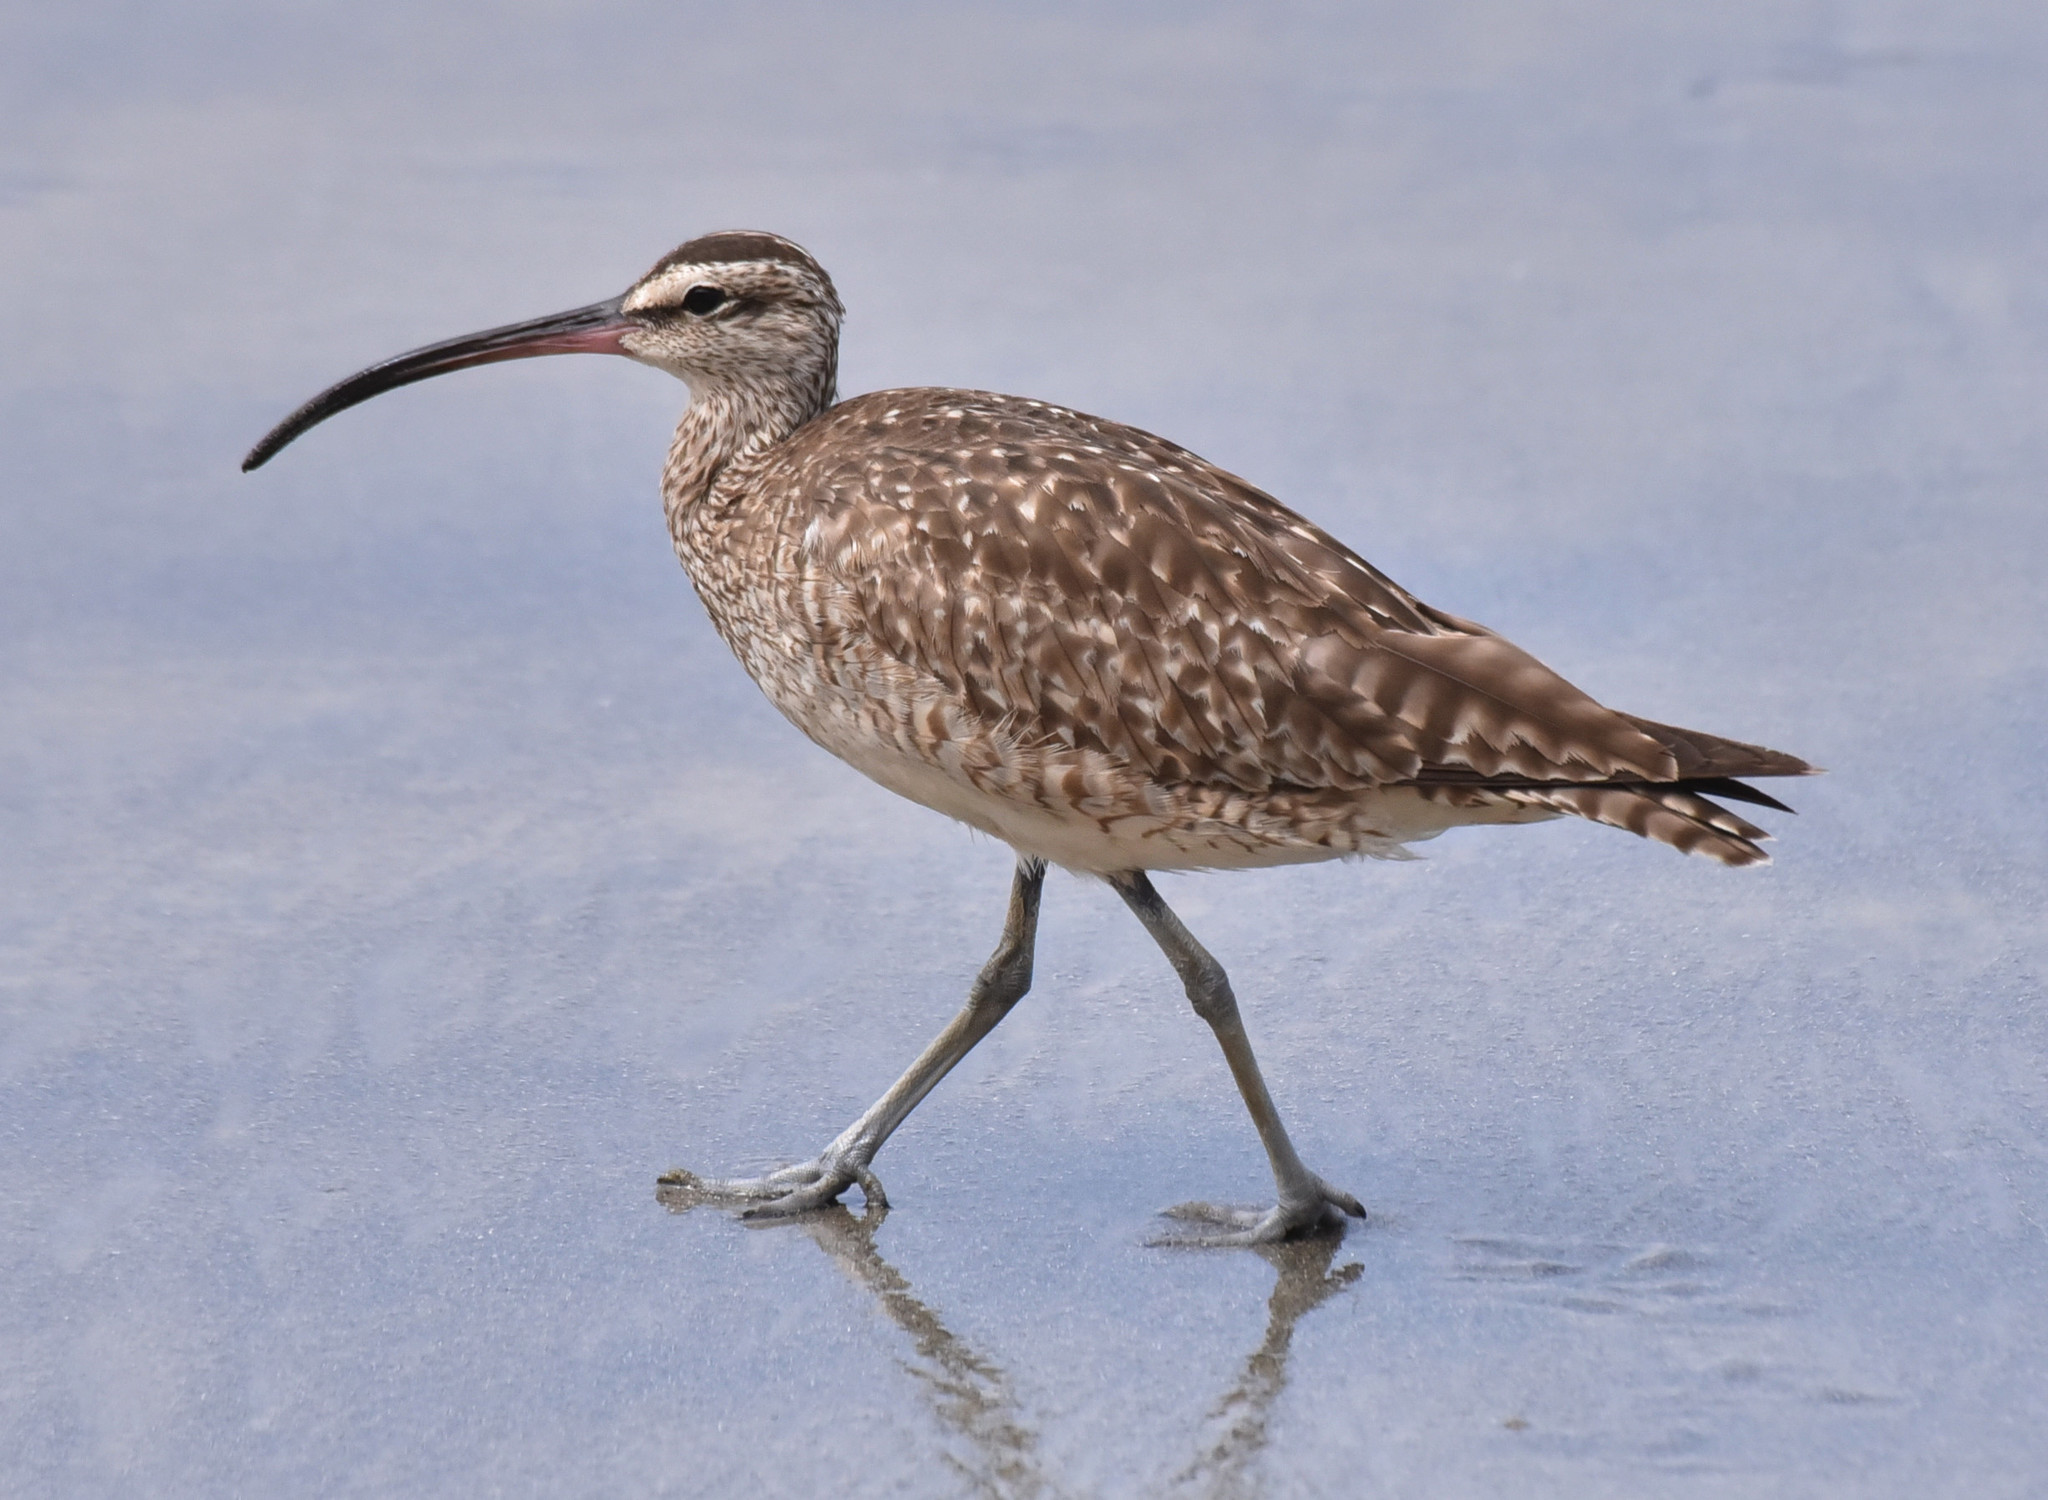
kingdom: Animalia
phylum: Chordata
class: Aves
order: Charadriiformes
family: Scolopacidae
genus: Numenius
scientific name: Numenius phaeopus
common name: Whimbrel
